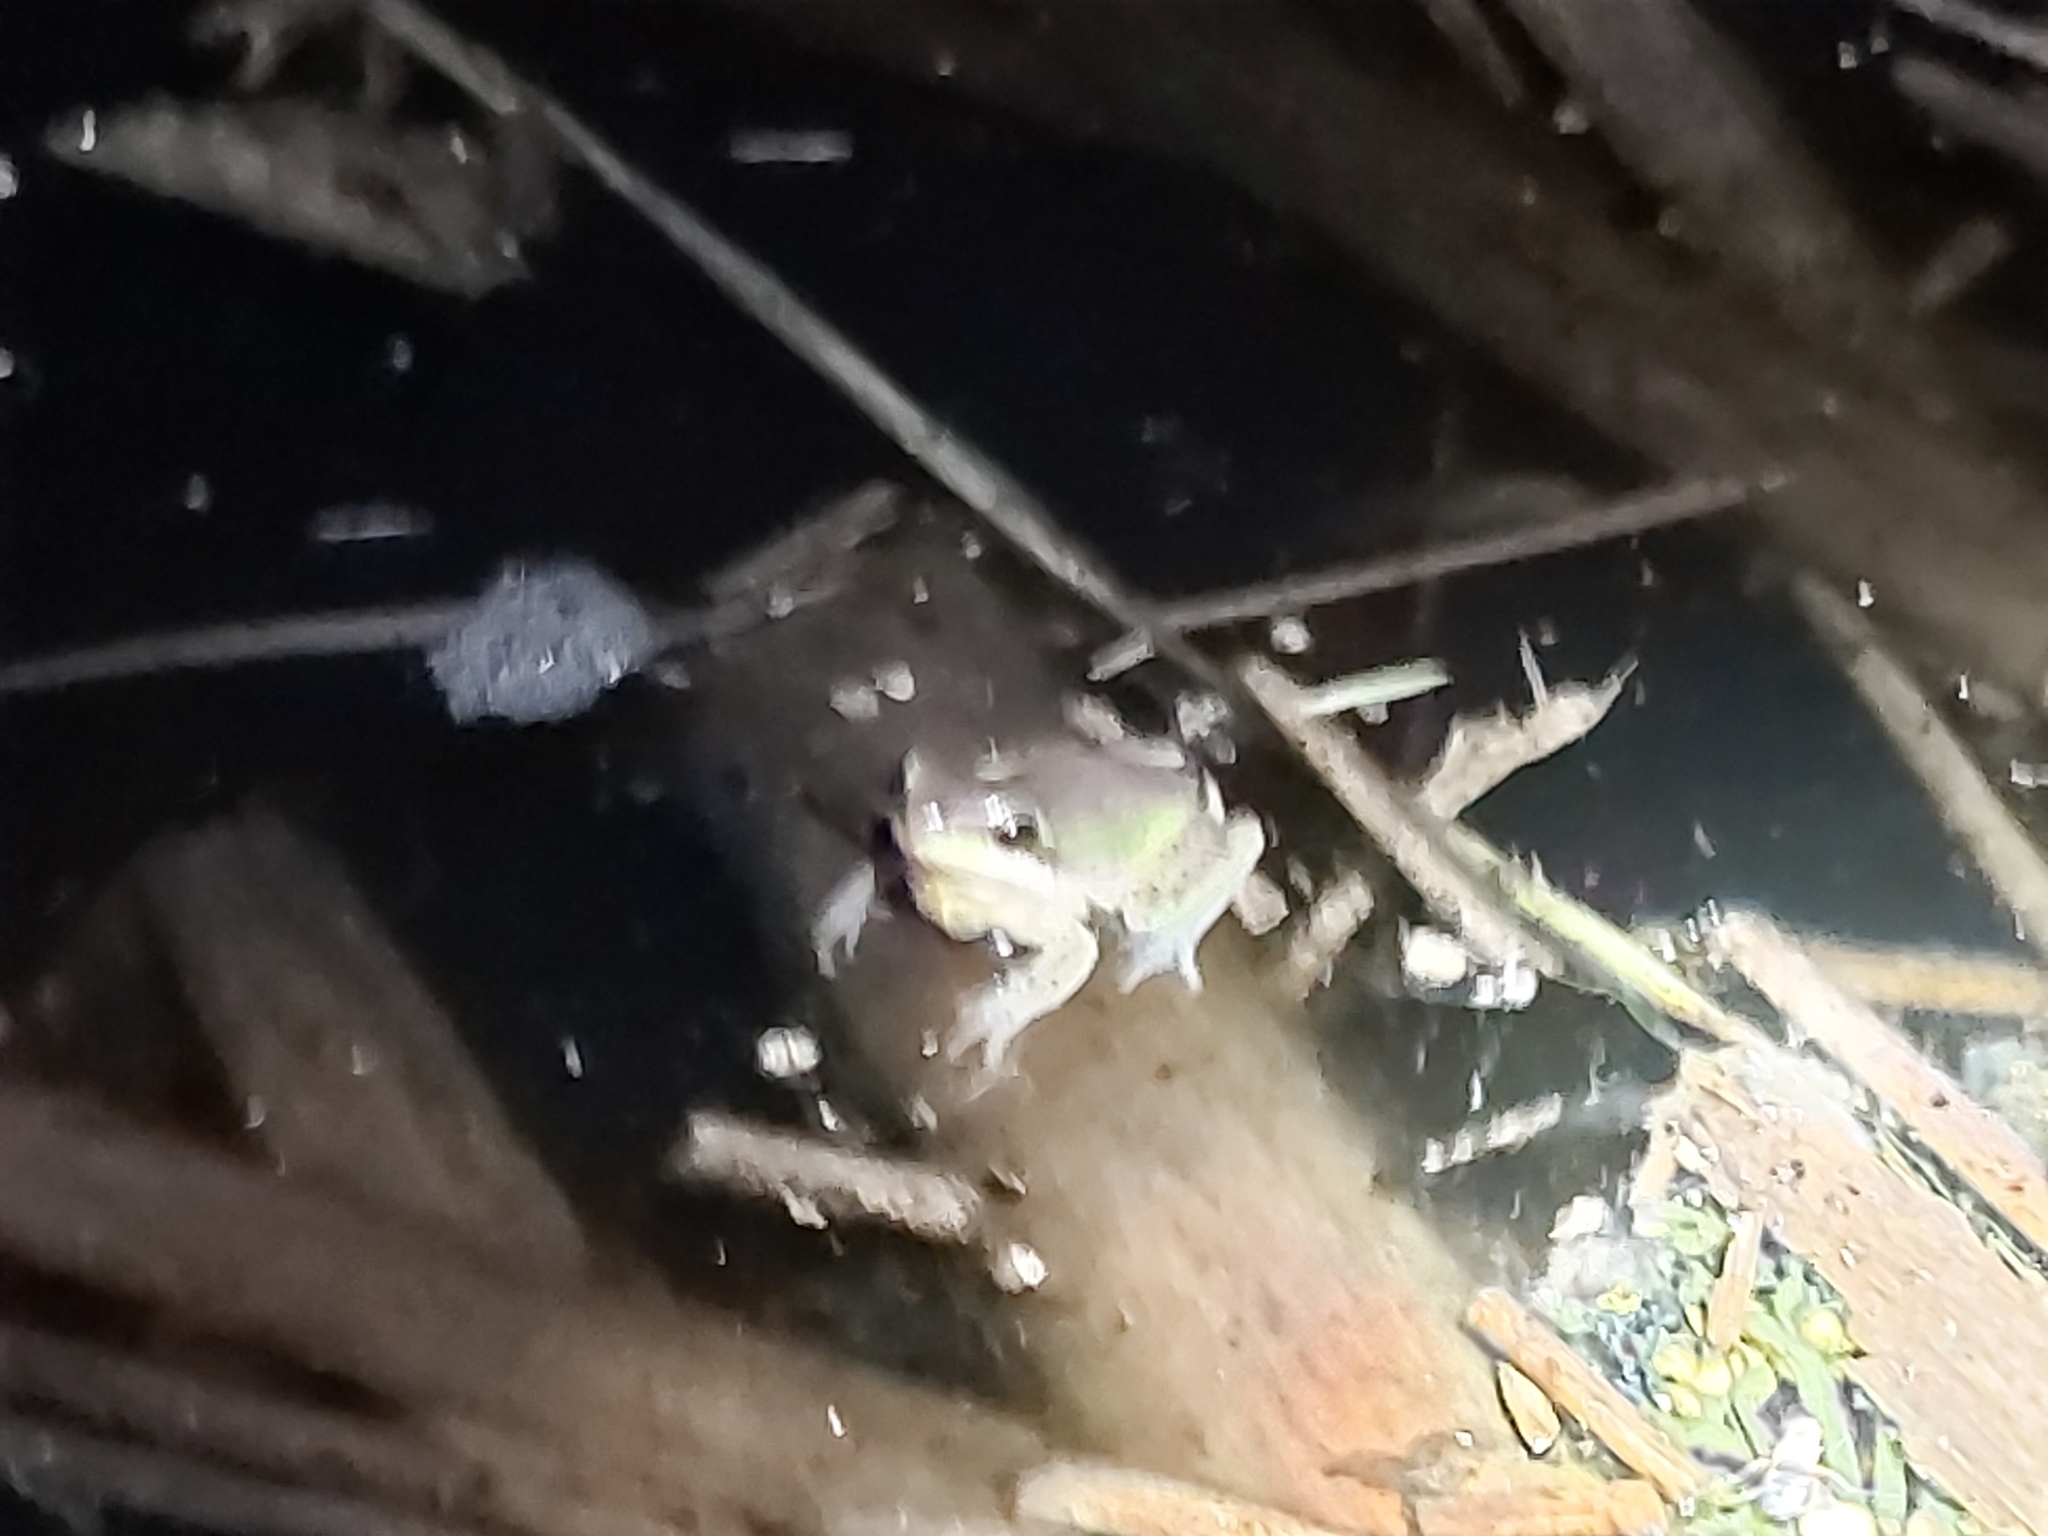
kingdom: Animalia
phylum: Chordata
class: Amphibia
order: Anura
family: Pelodryadidae
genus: Litoria
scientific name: Litoria fallax
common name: Eastern dwarf treefrog
